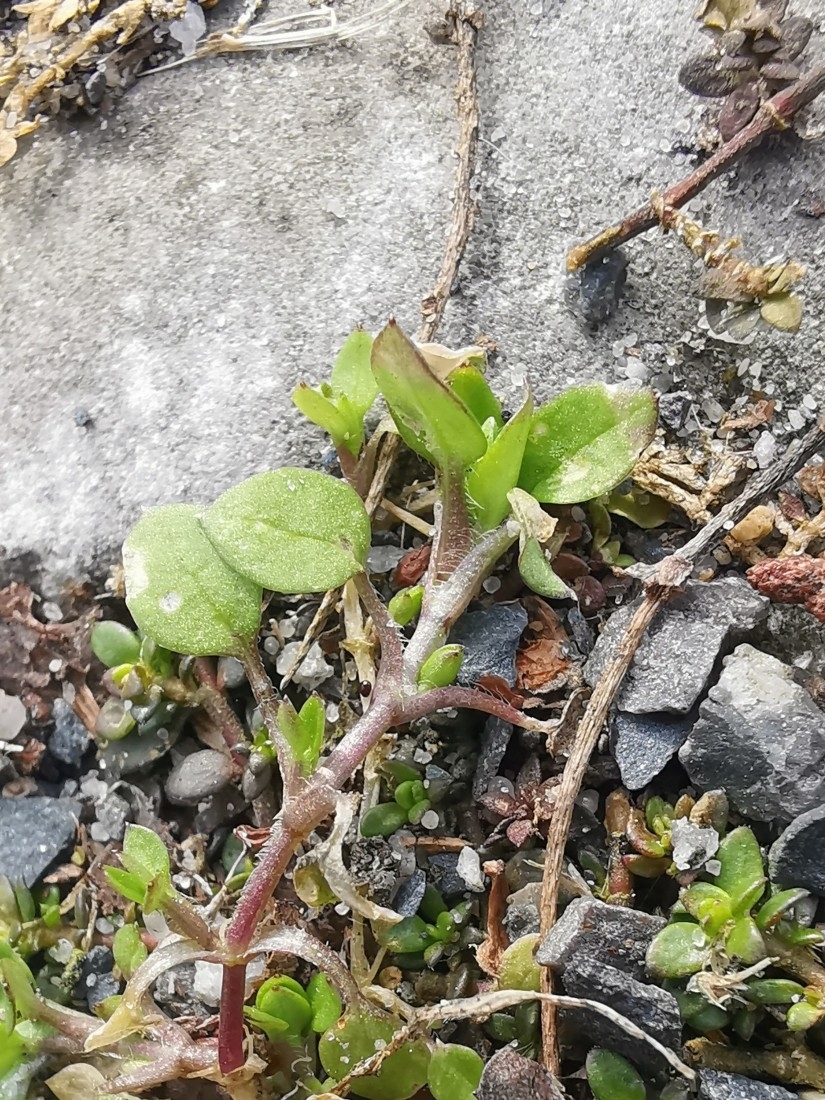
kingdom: Plantae
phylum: Tracheophyta
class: Magnoliopsida
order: Caryophyllales
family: Caryophyllaceae
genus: Stellaria
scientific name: Stellaria media
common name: Common chickweed
